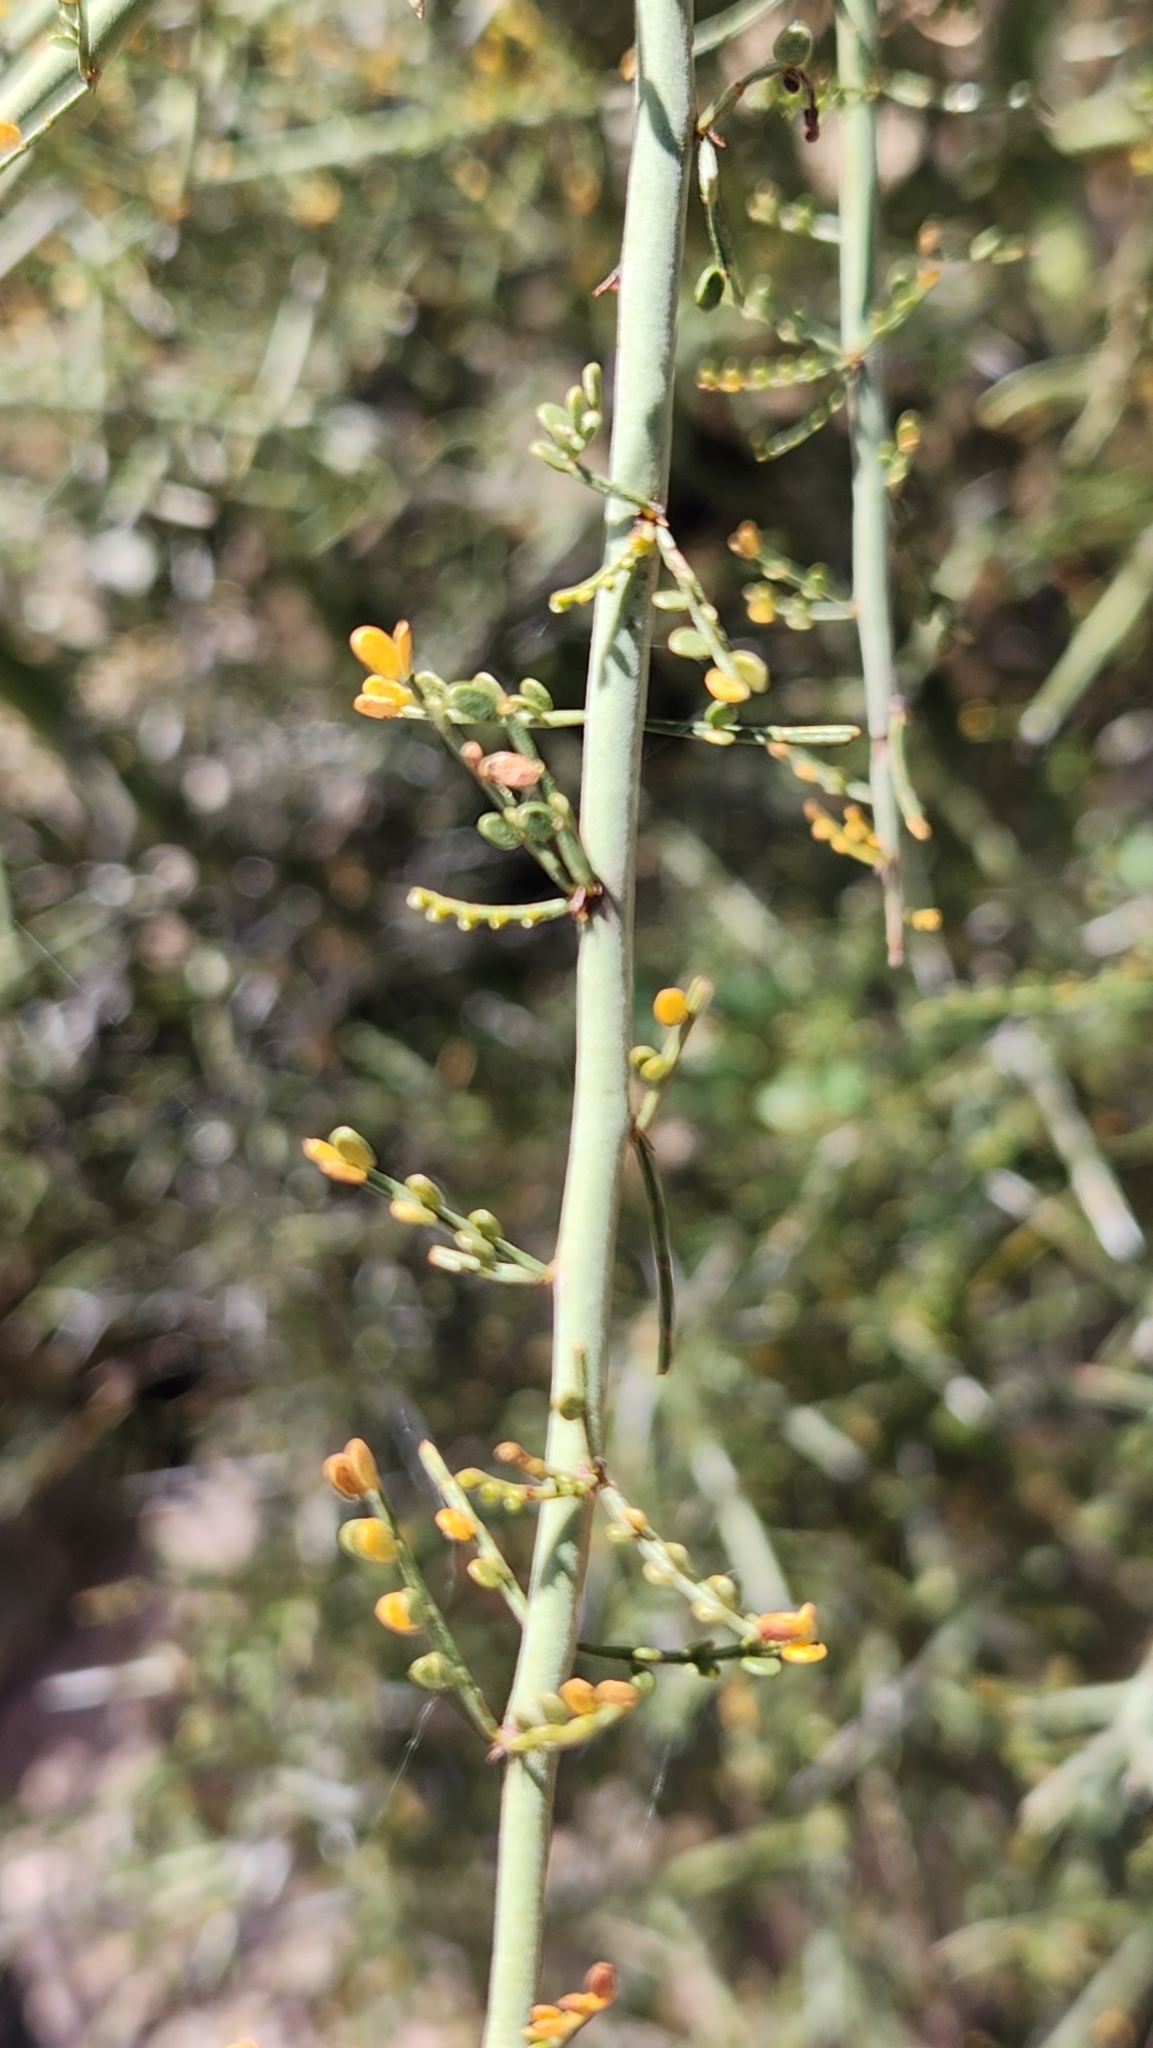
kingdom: Plantae
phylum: Tracheophyta
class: Magnoliopsida
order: Fabales
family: Fabaceae
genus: Parkinsonia
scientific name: Parkinsonia microphylla
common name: Yellow paloverde
